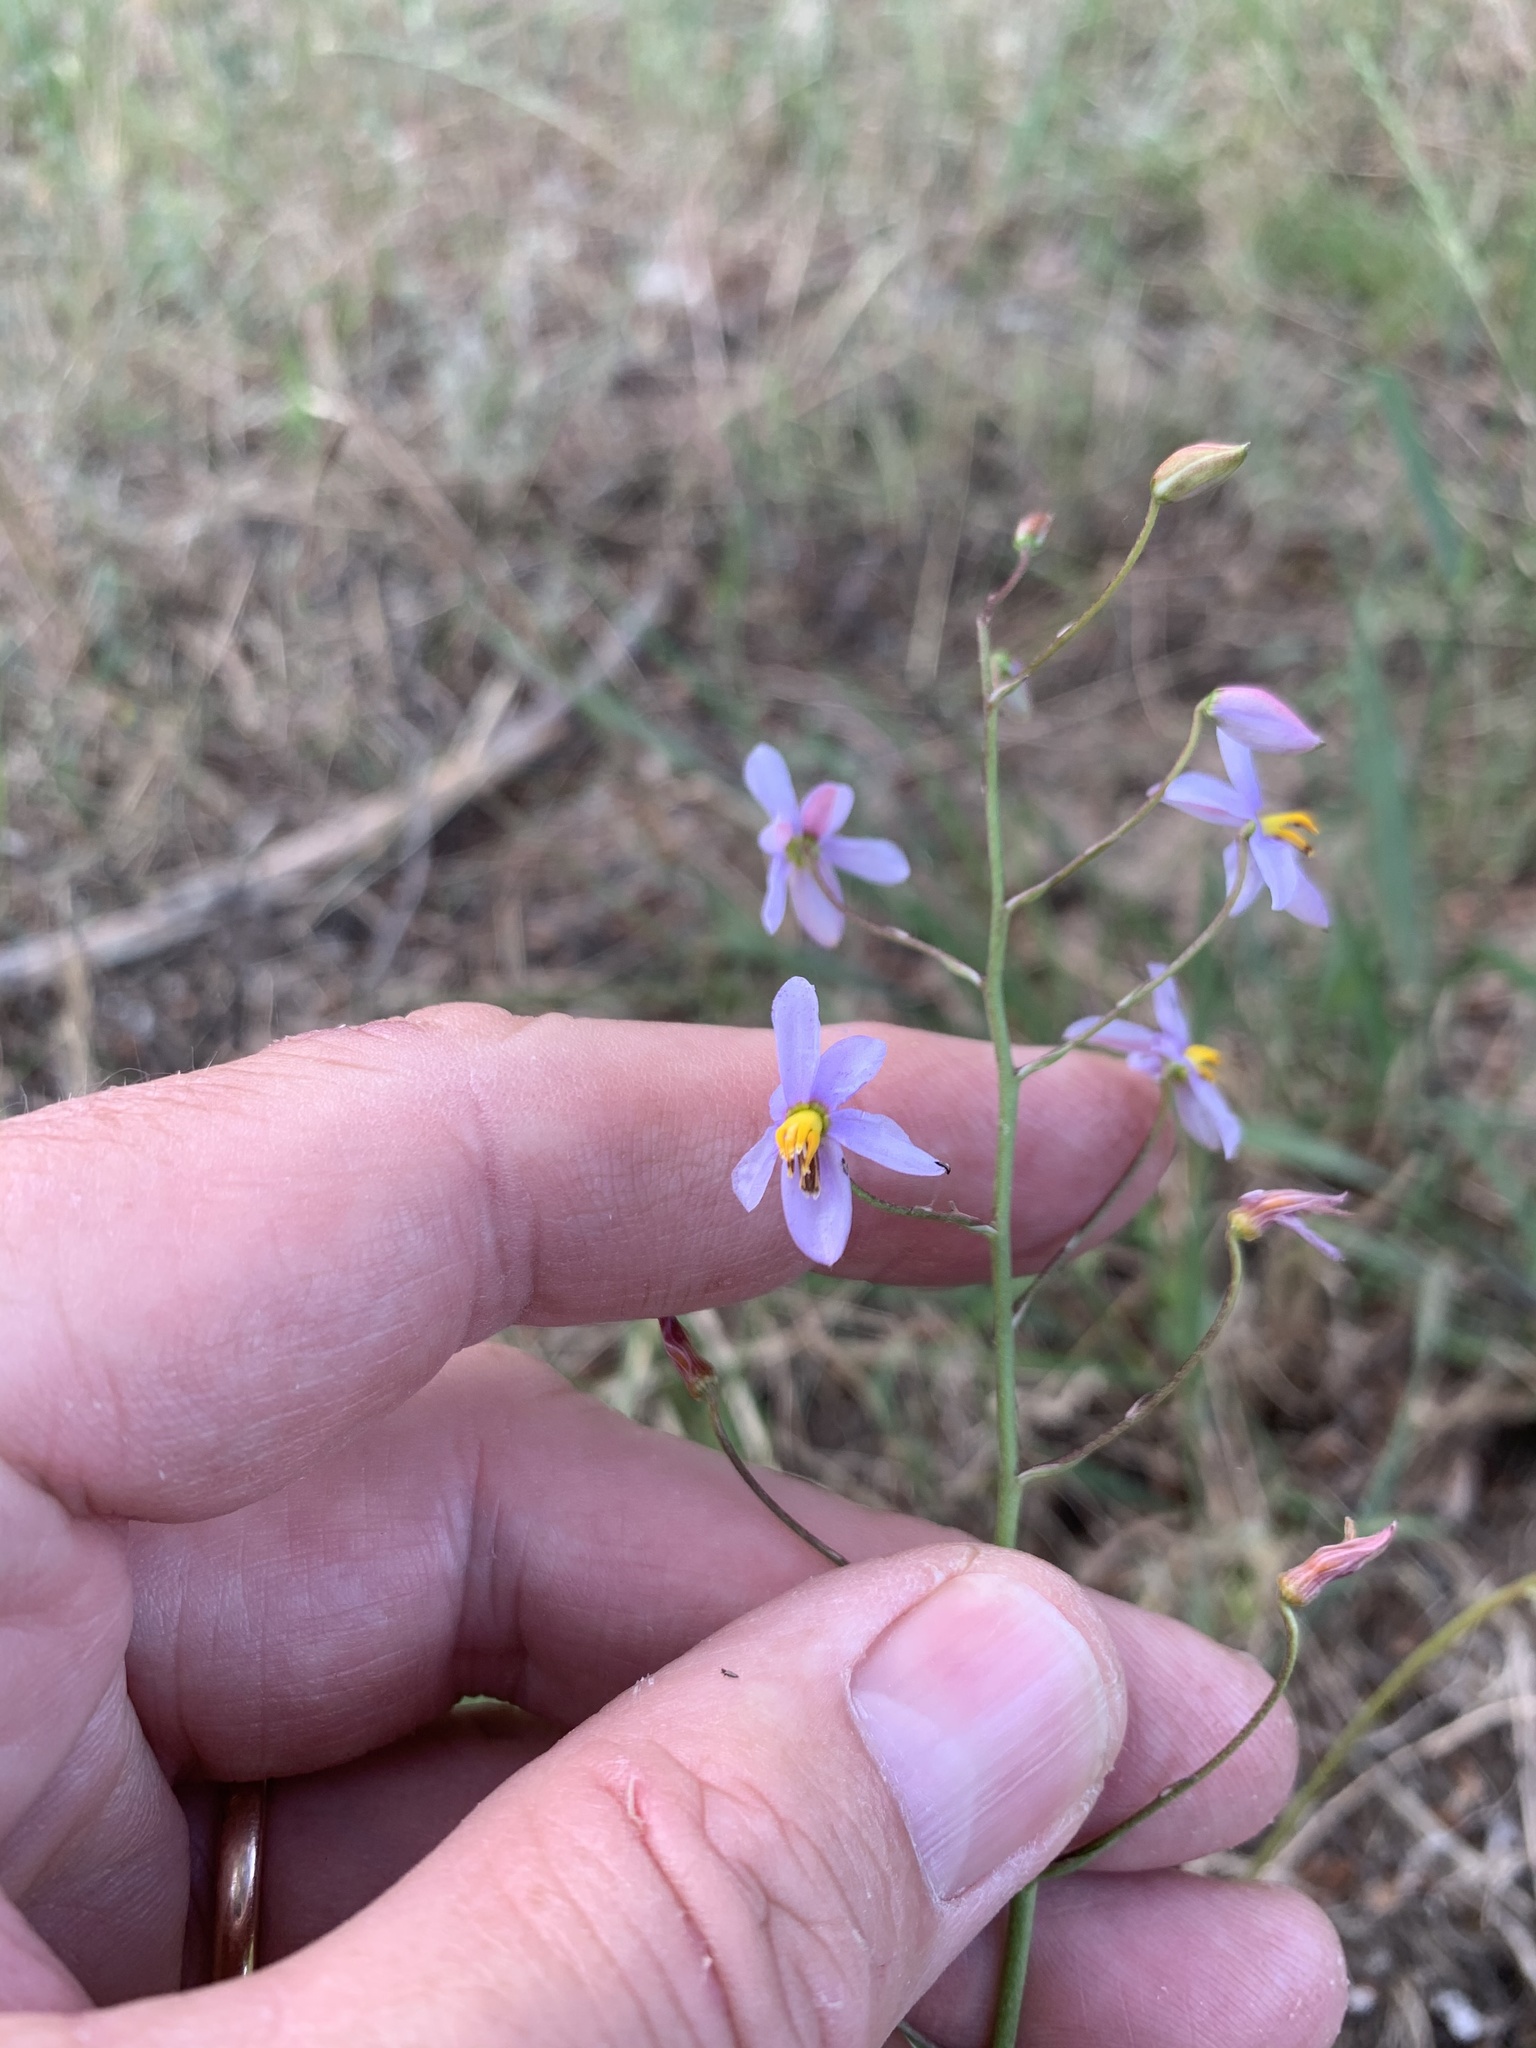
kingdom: Plantae
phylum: Tracheophyta
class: Liliopsida
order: Asparagales
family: Tecophilaeaceae
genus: Cyanella
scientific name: Cyanella hyacinthoides
